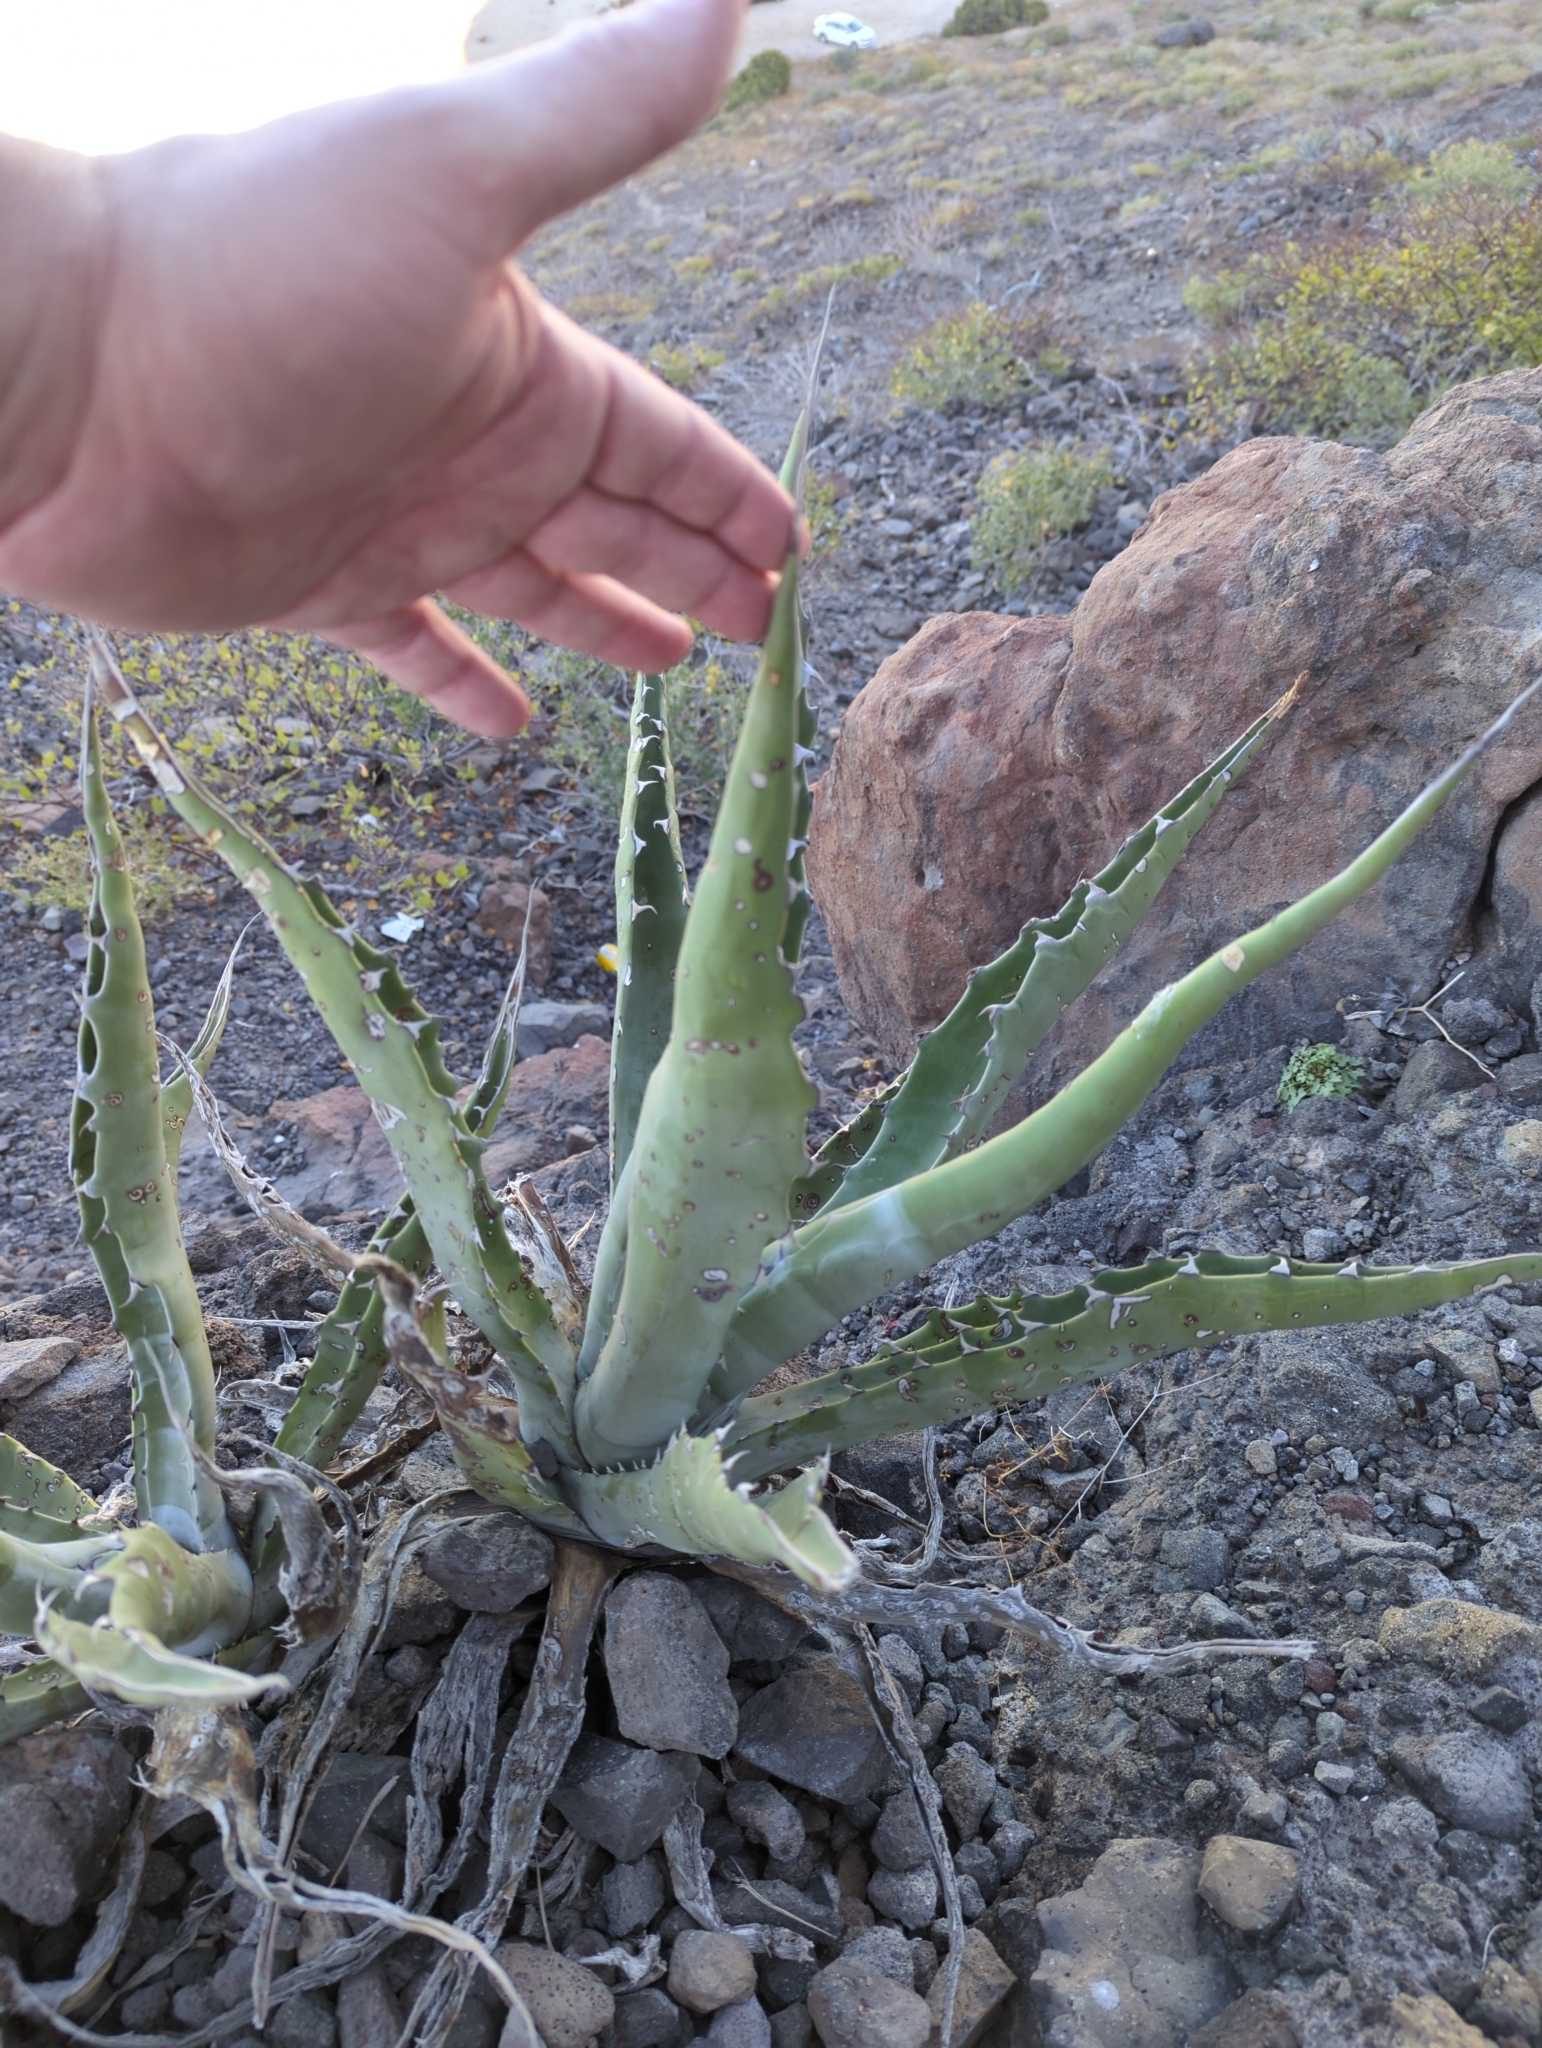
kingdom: Plantae
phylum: Tracheophyta
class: Liliopsida
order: Asparagales
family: Asparagaceae
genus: Agave
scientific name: Agave sobria
